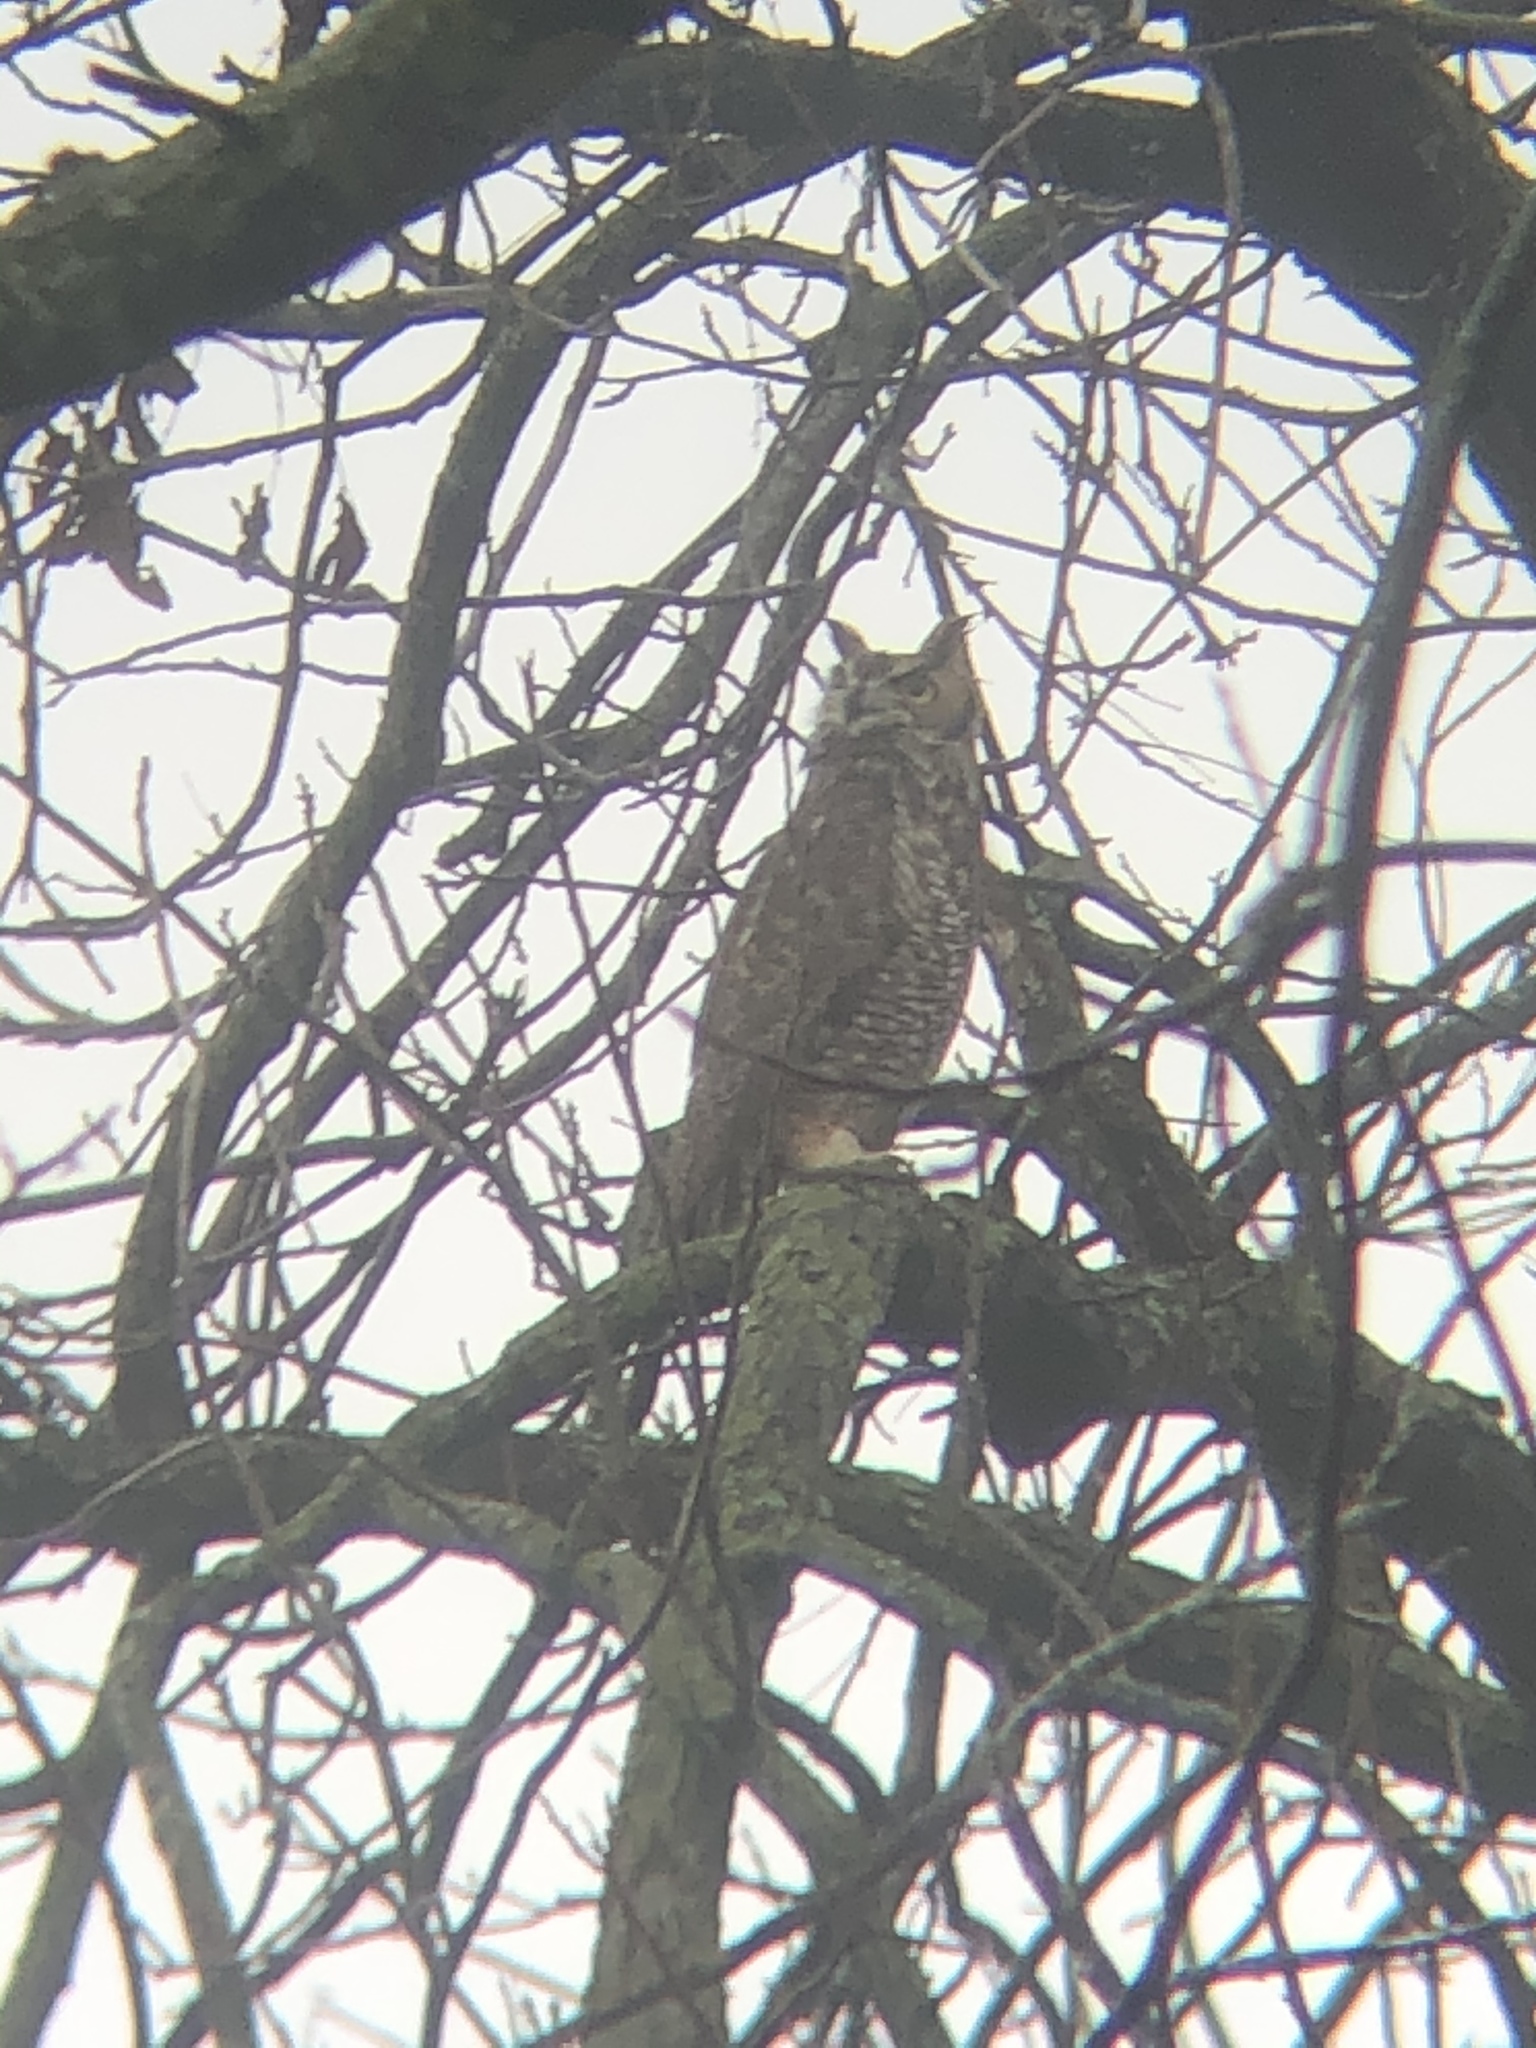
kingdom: Animalia
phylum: Chordata
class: Aves
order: Strigiformes
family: Strigidae
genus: Bubo
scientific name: Bubo virginianus
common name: Great horned owl
